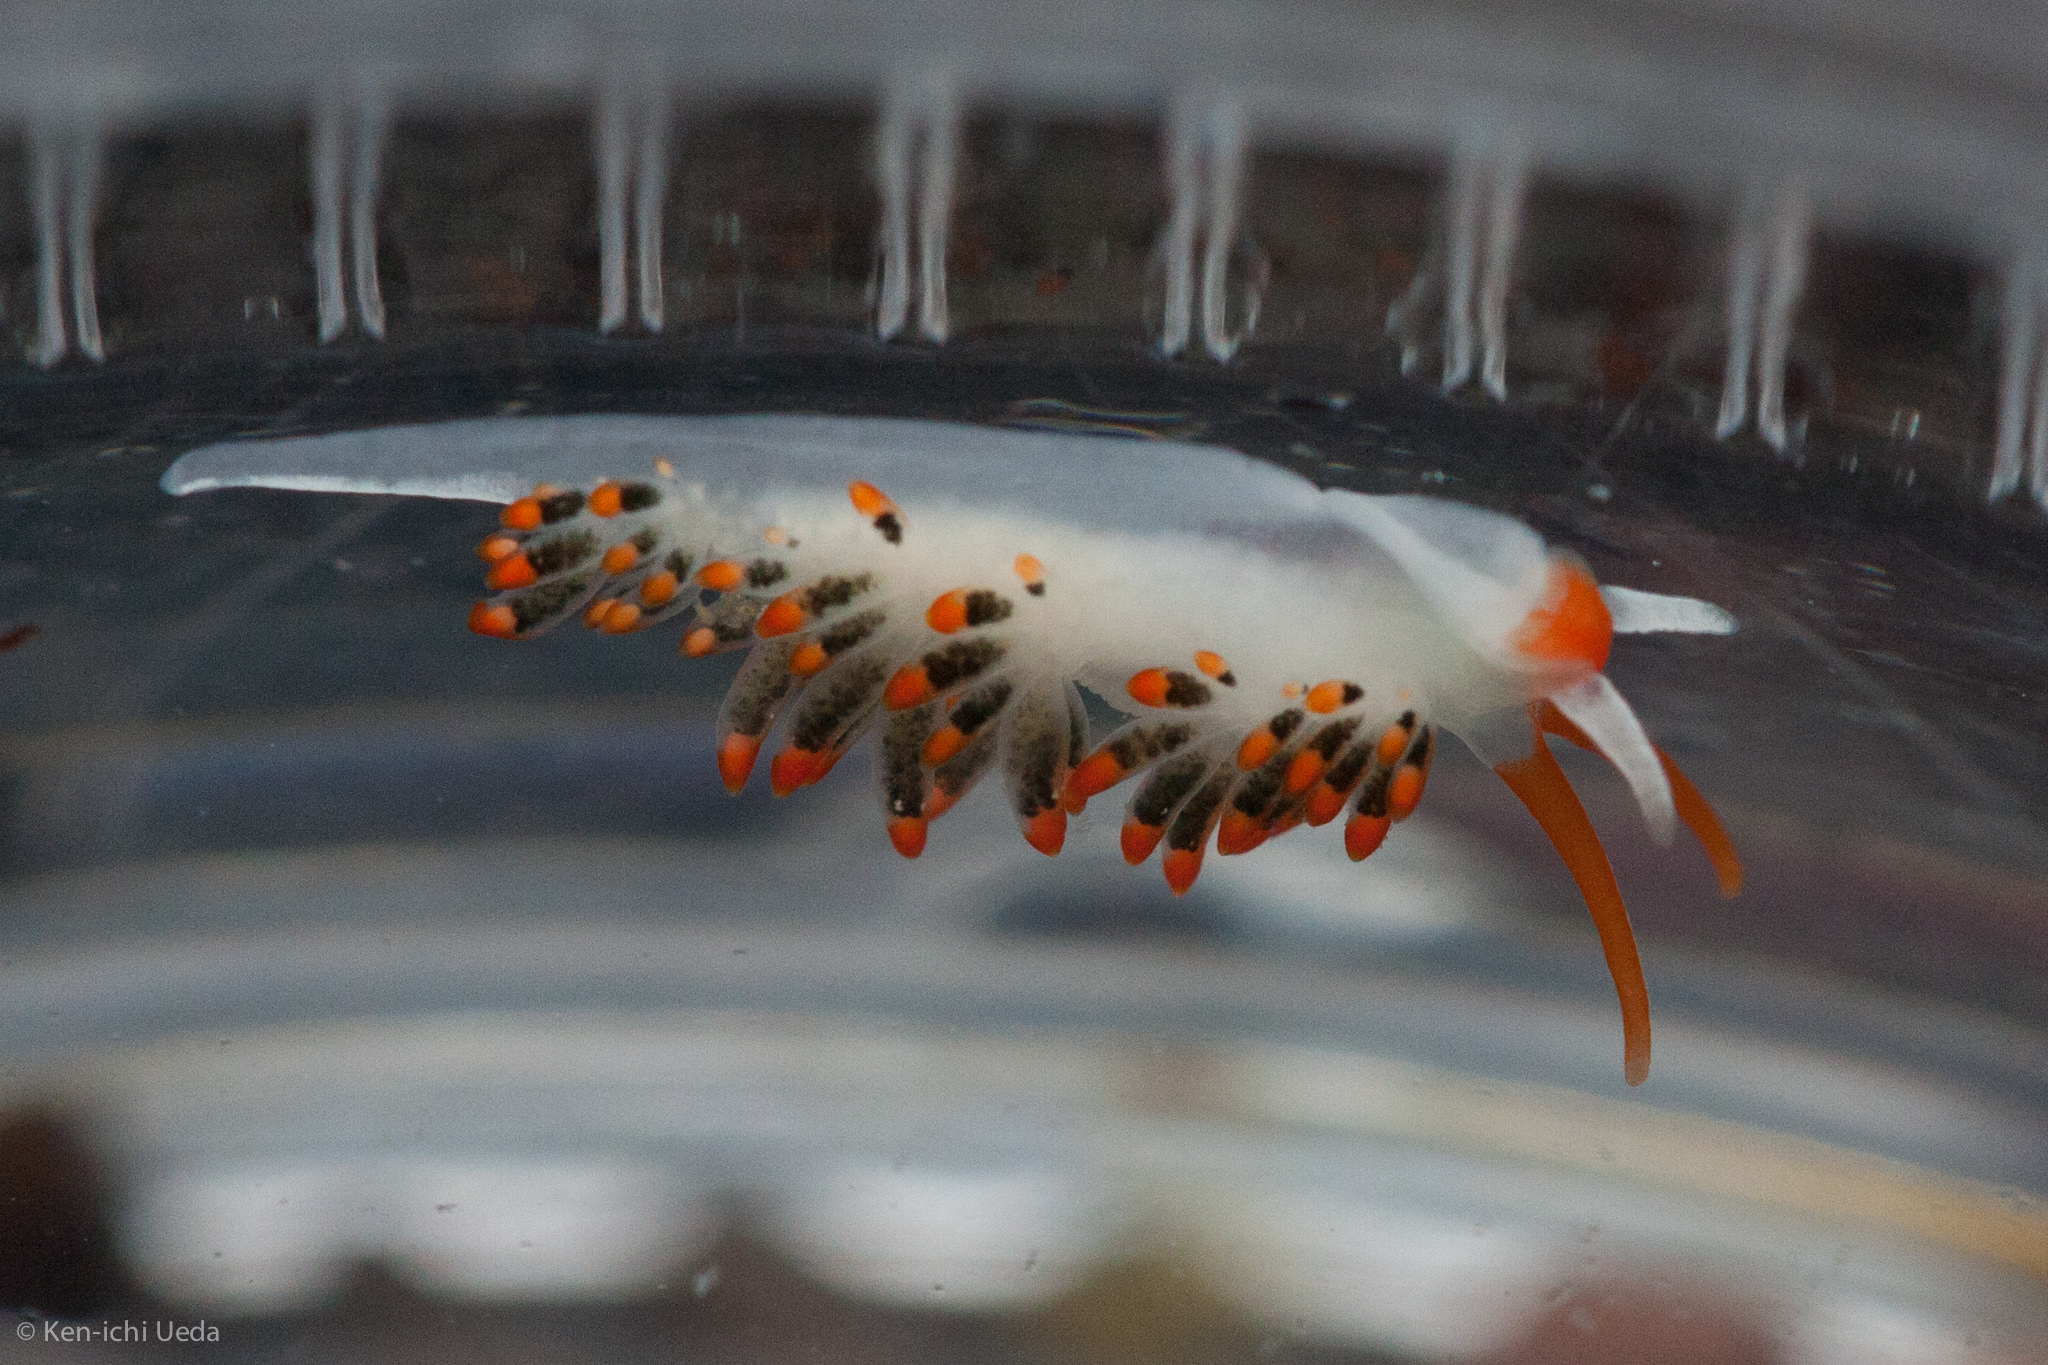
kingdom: Animalia
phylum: Mollusca
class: Gastropoda
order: Nudibranchia
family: Trinchesiidae
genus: Diaphoreolis
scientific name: Diaphoreolis lagunae
